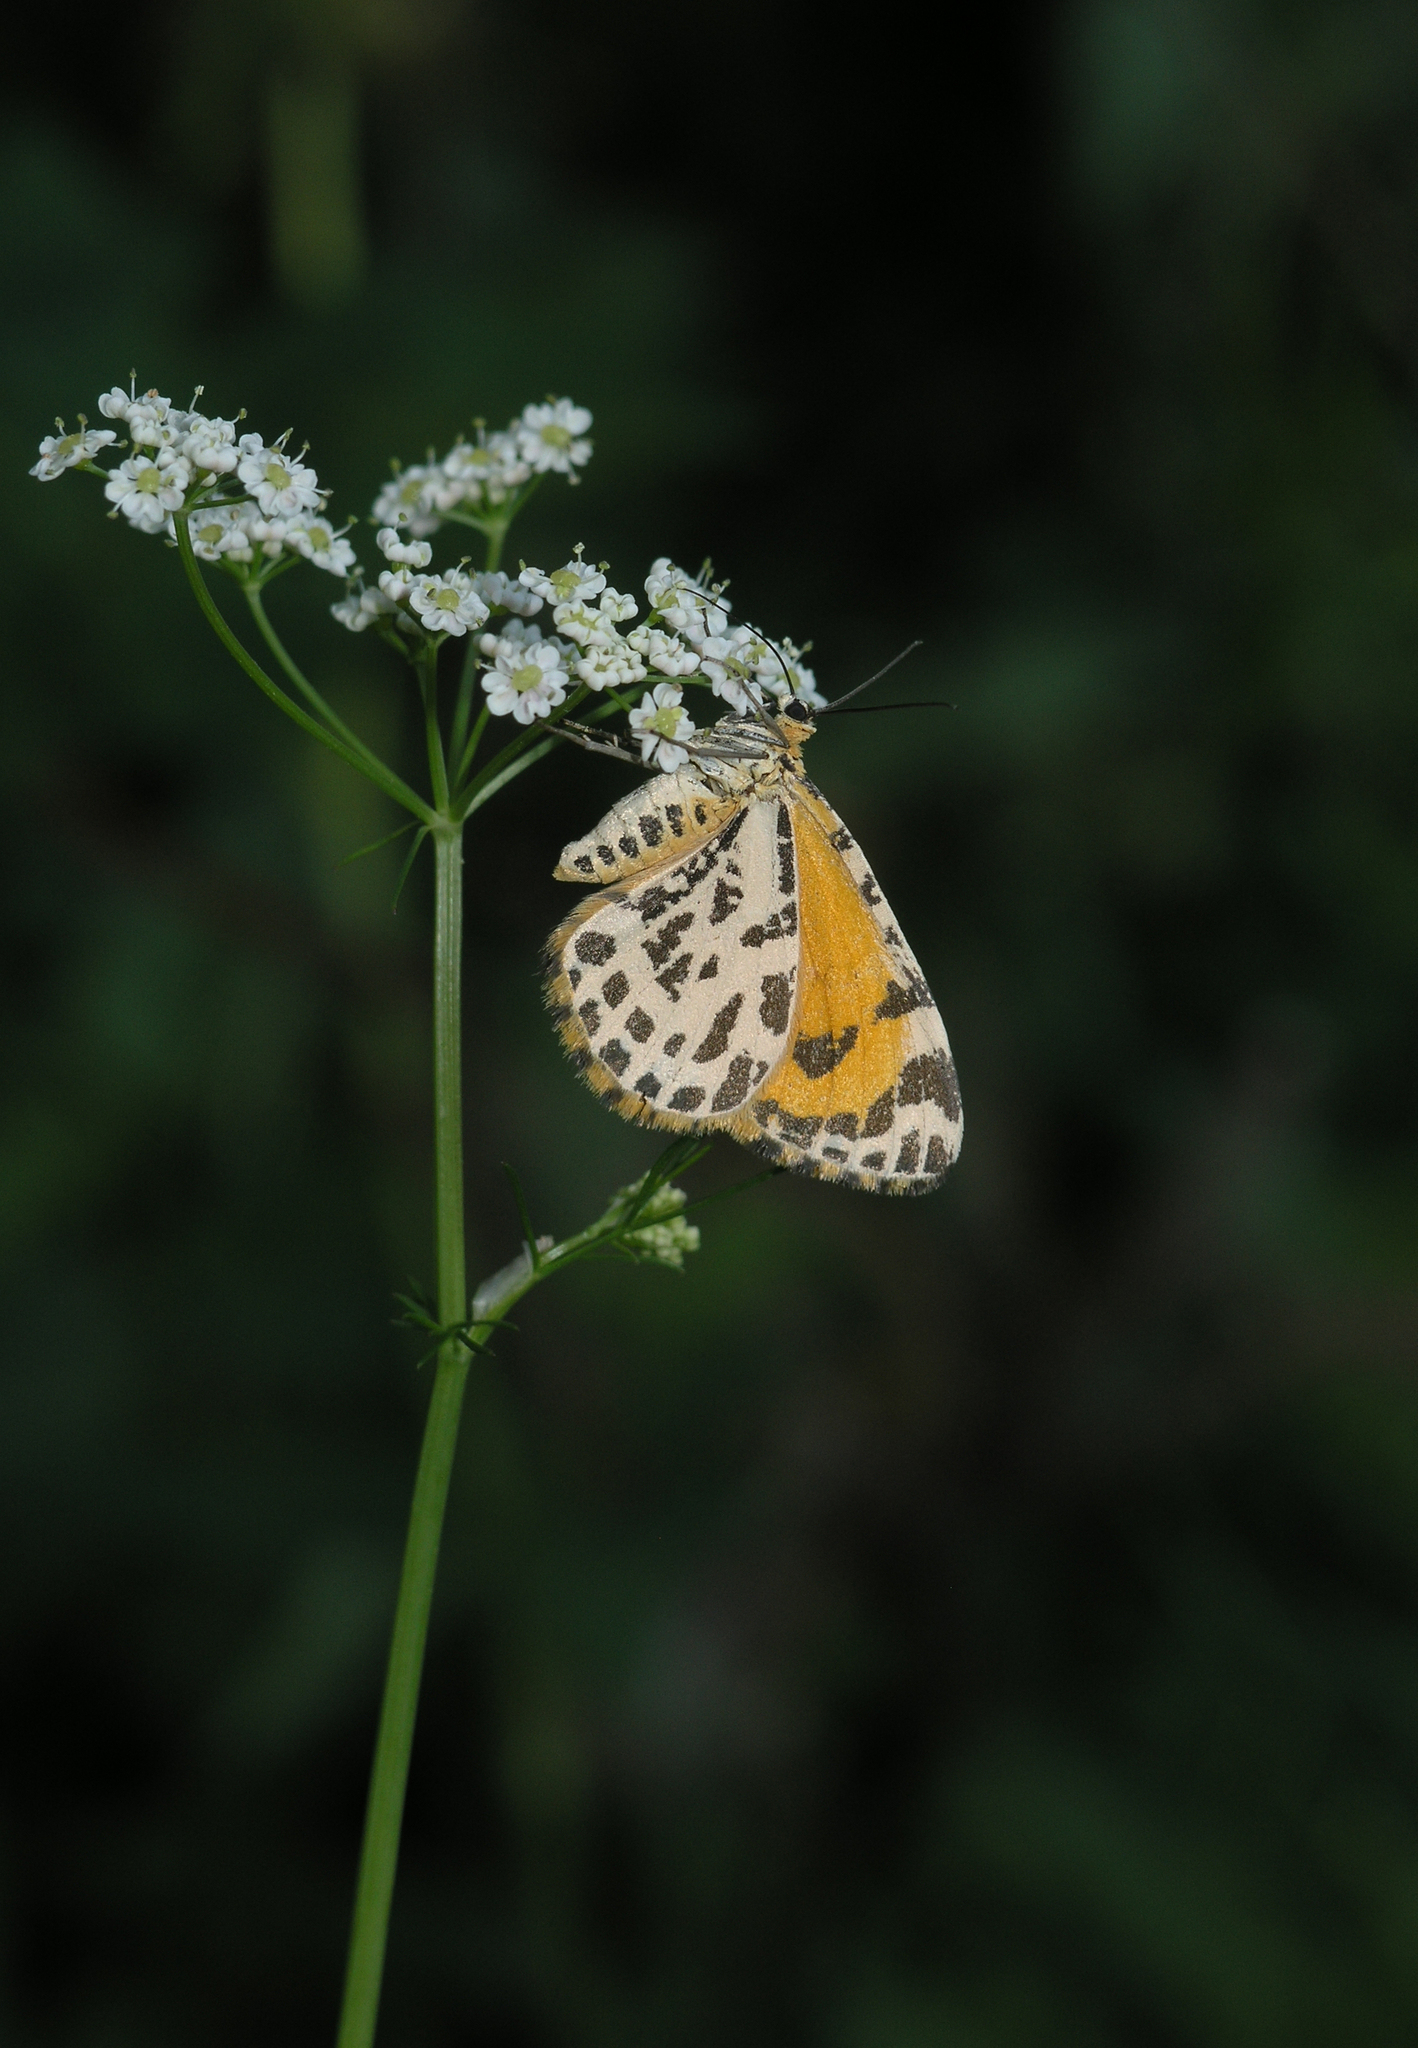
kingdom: Animalia
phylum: Arthropoda
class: Insecta
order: Lepidoptera
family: Geometridae
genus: Stamnodes
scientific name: Stamnodes danilovi
